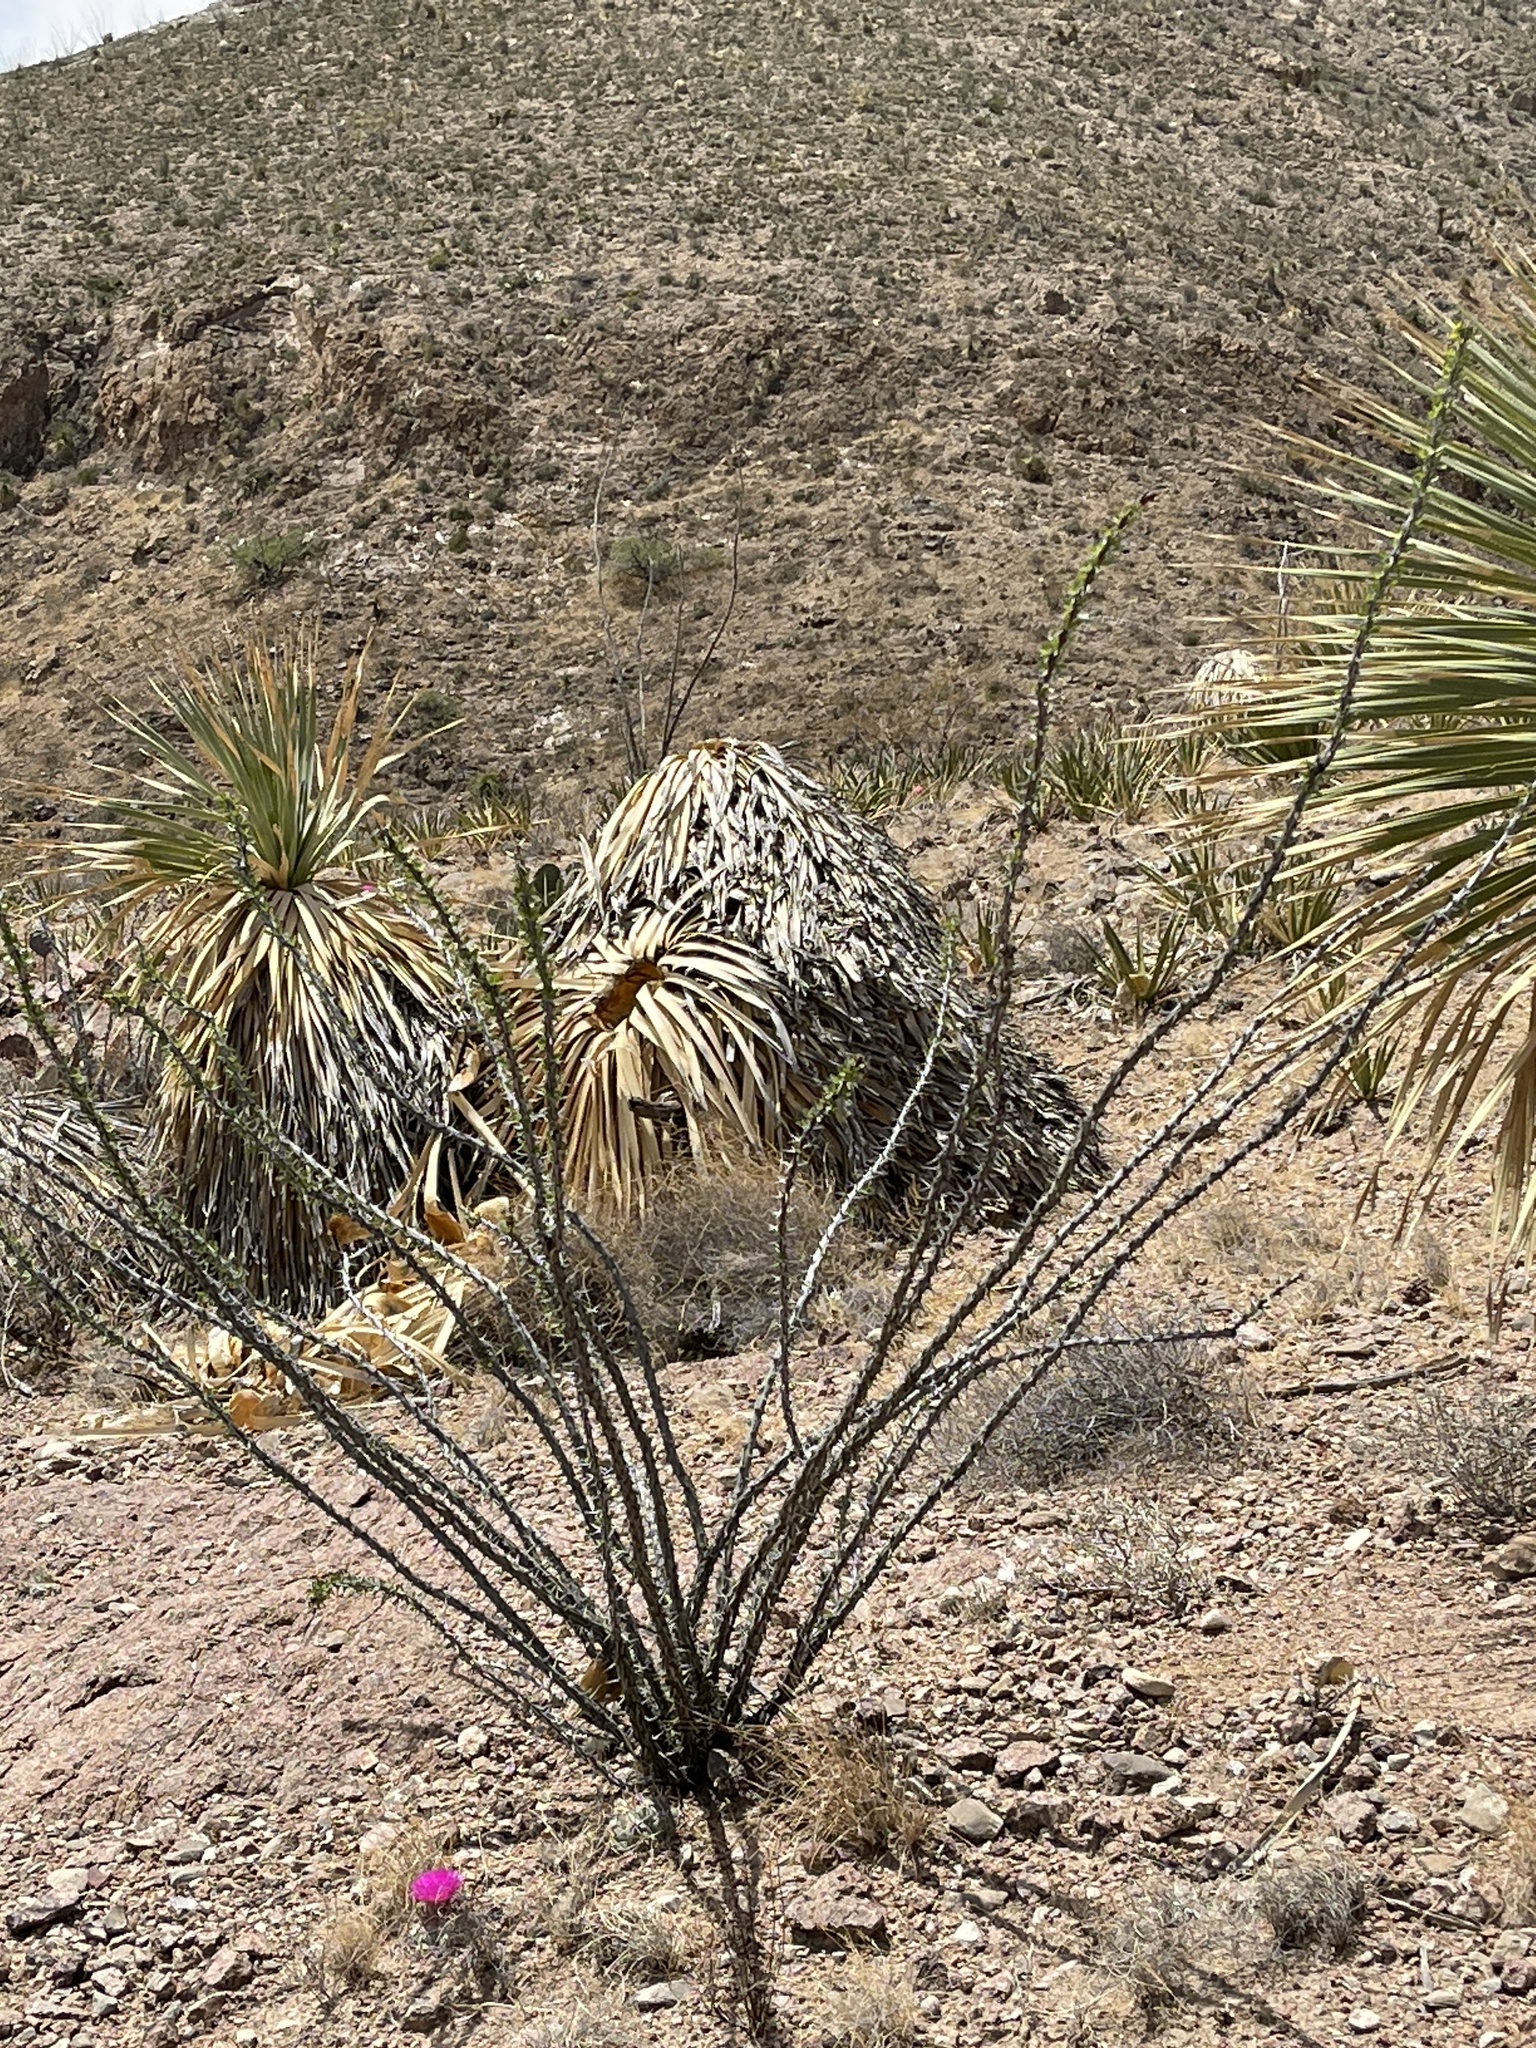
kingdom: Plantae
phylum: Tracheophyta
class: Magnoliopsida
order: Ericales
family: Fouquieriaceae
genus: Fouquieria
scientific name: Fouquieria splendens
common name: Vine-cactus
